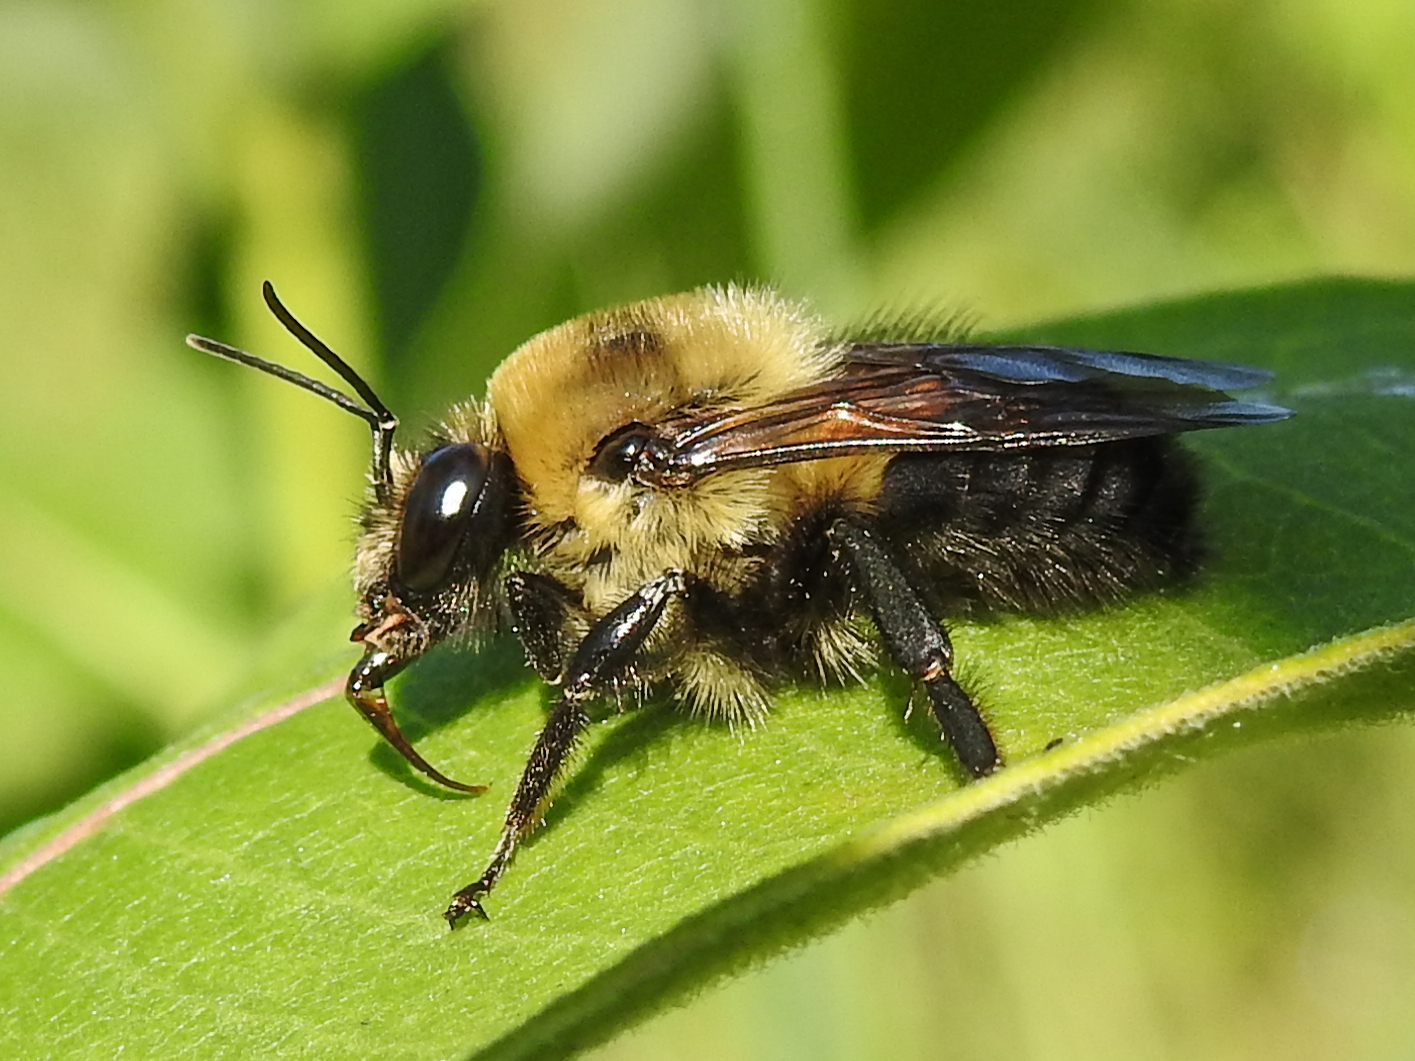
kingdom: Animalia
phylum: Arthropoda
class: Insecta
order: Hymenoptera
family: Apidae
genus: Bombus
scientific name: Bombus griseocollis
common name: Brown-belted bumble bee
